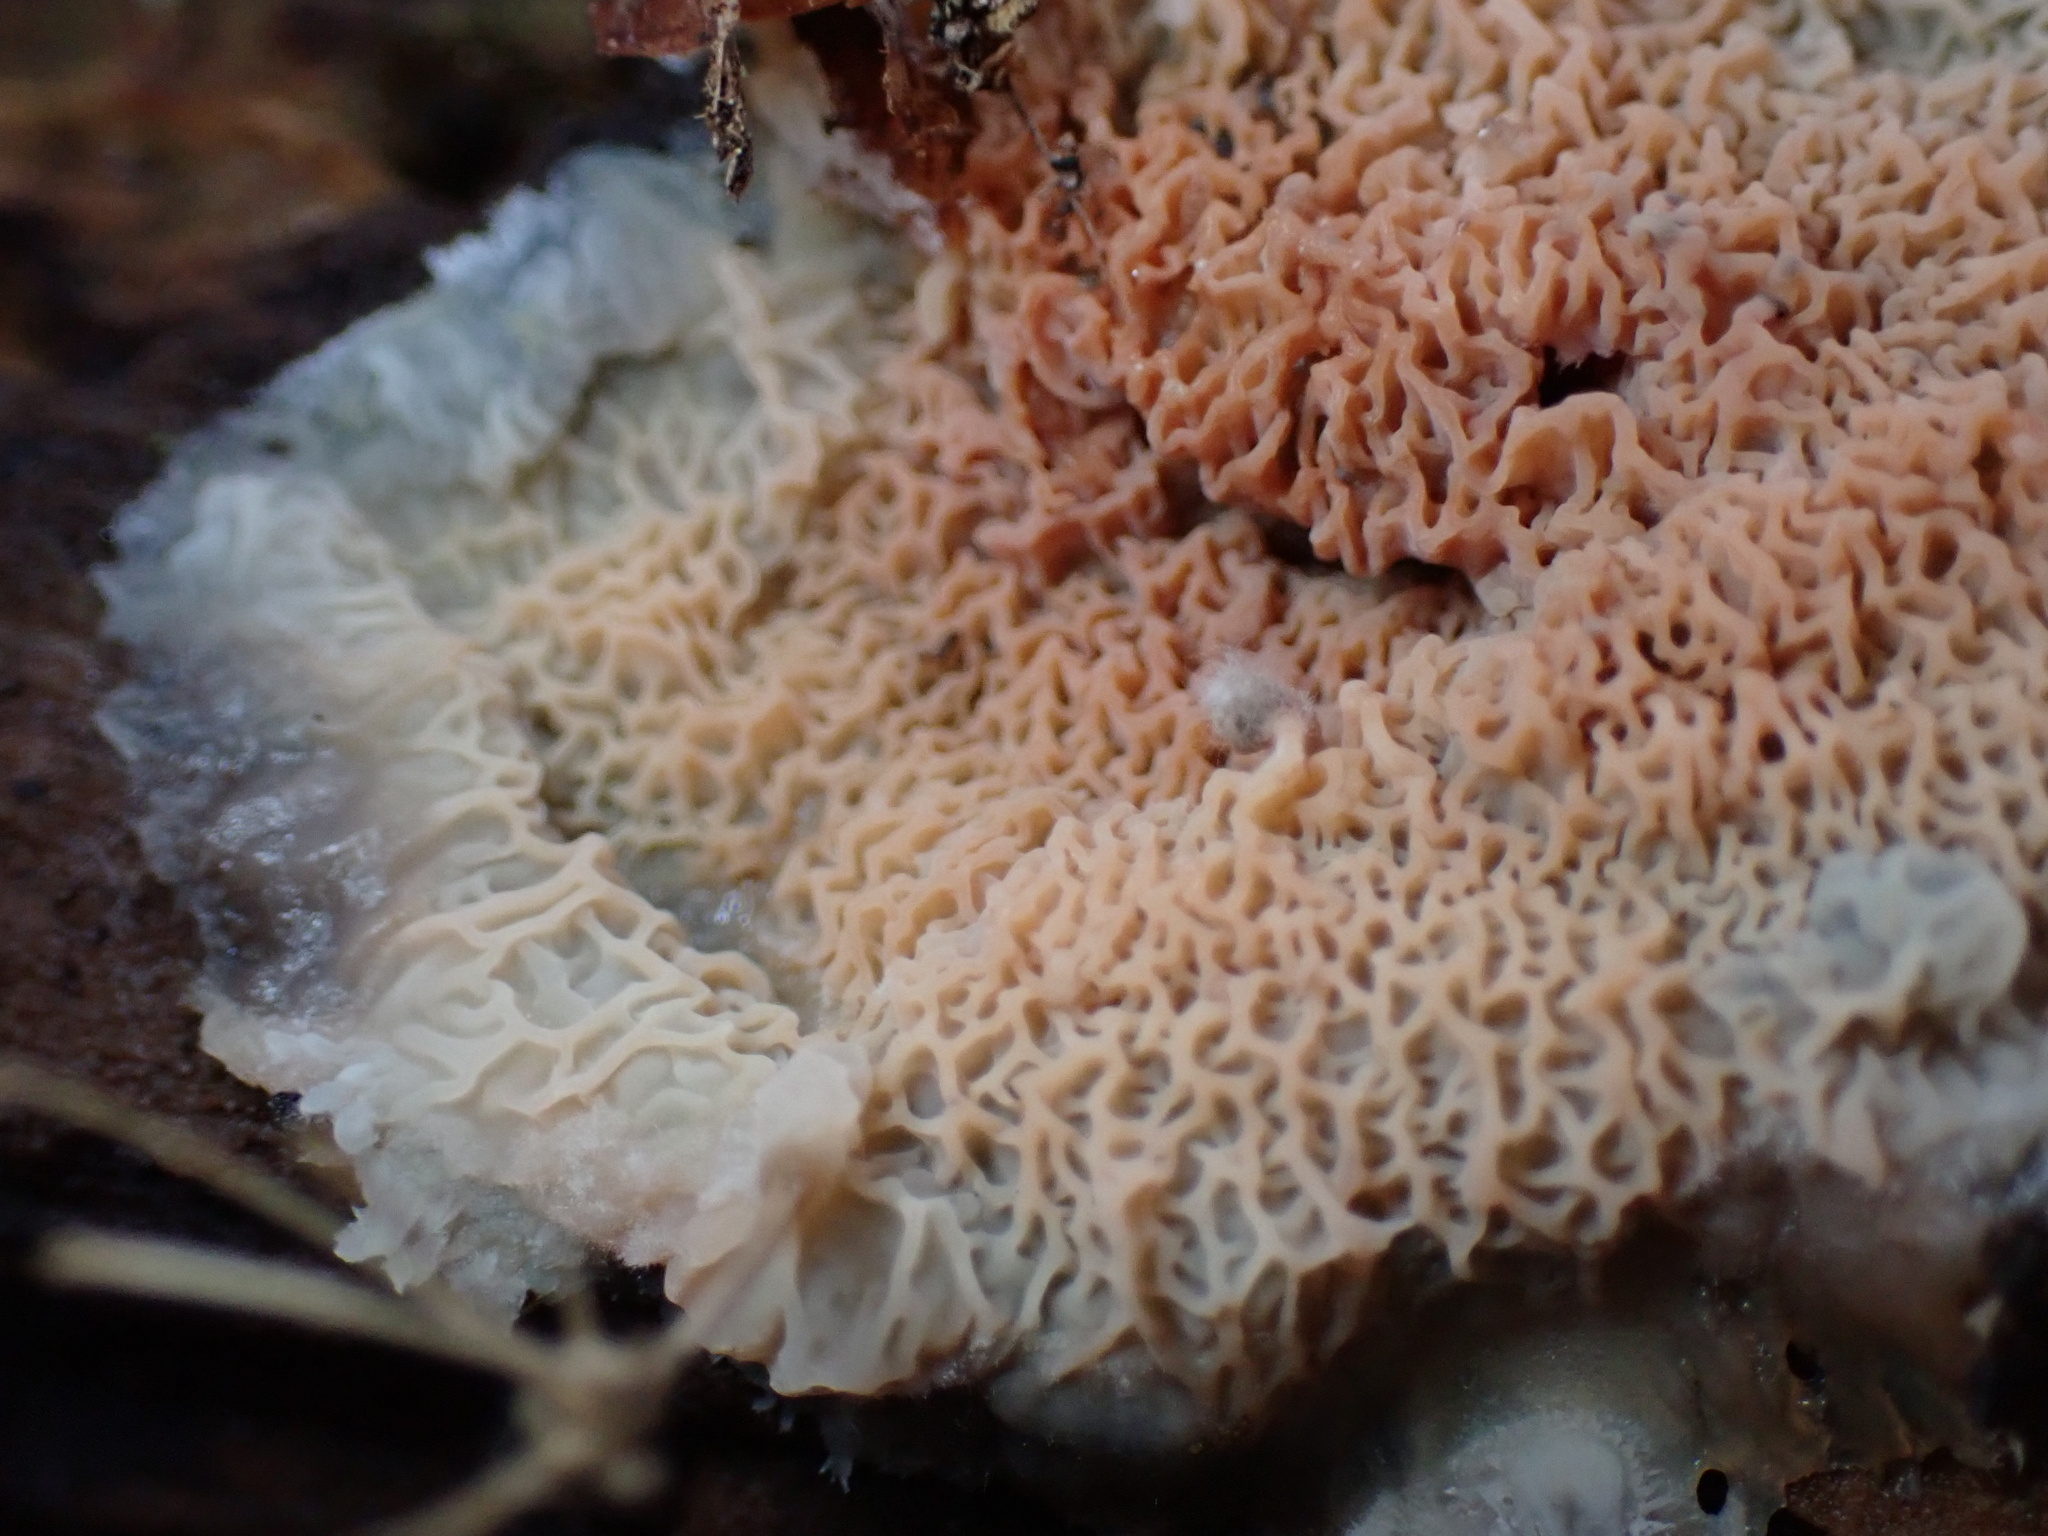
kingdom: Fungi
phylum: Basidiomycota
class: Agaricomycetes
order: Polyporales
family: Meruliaceae
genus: Phlebia
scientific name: Phlebia tremellosa
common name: Jelly rot
